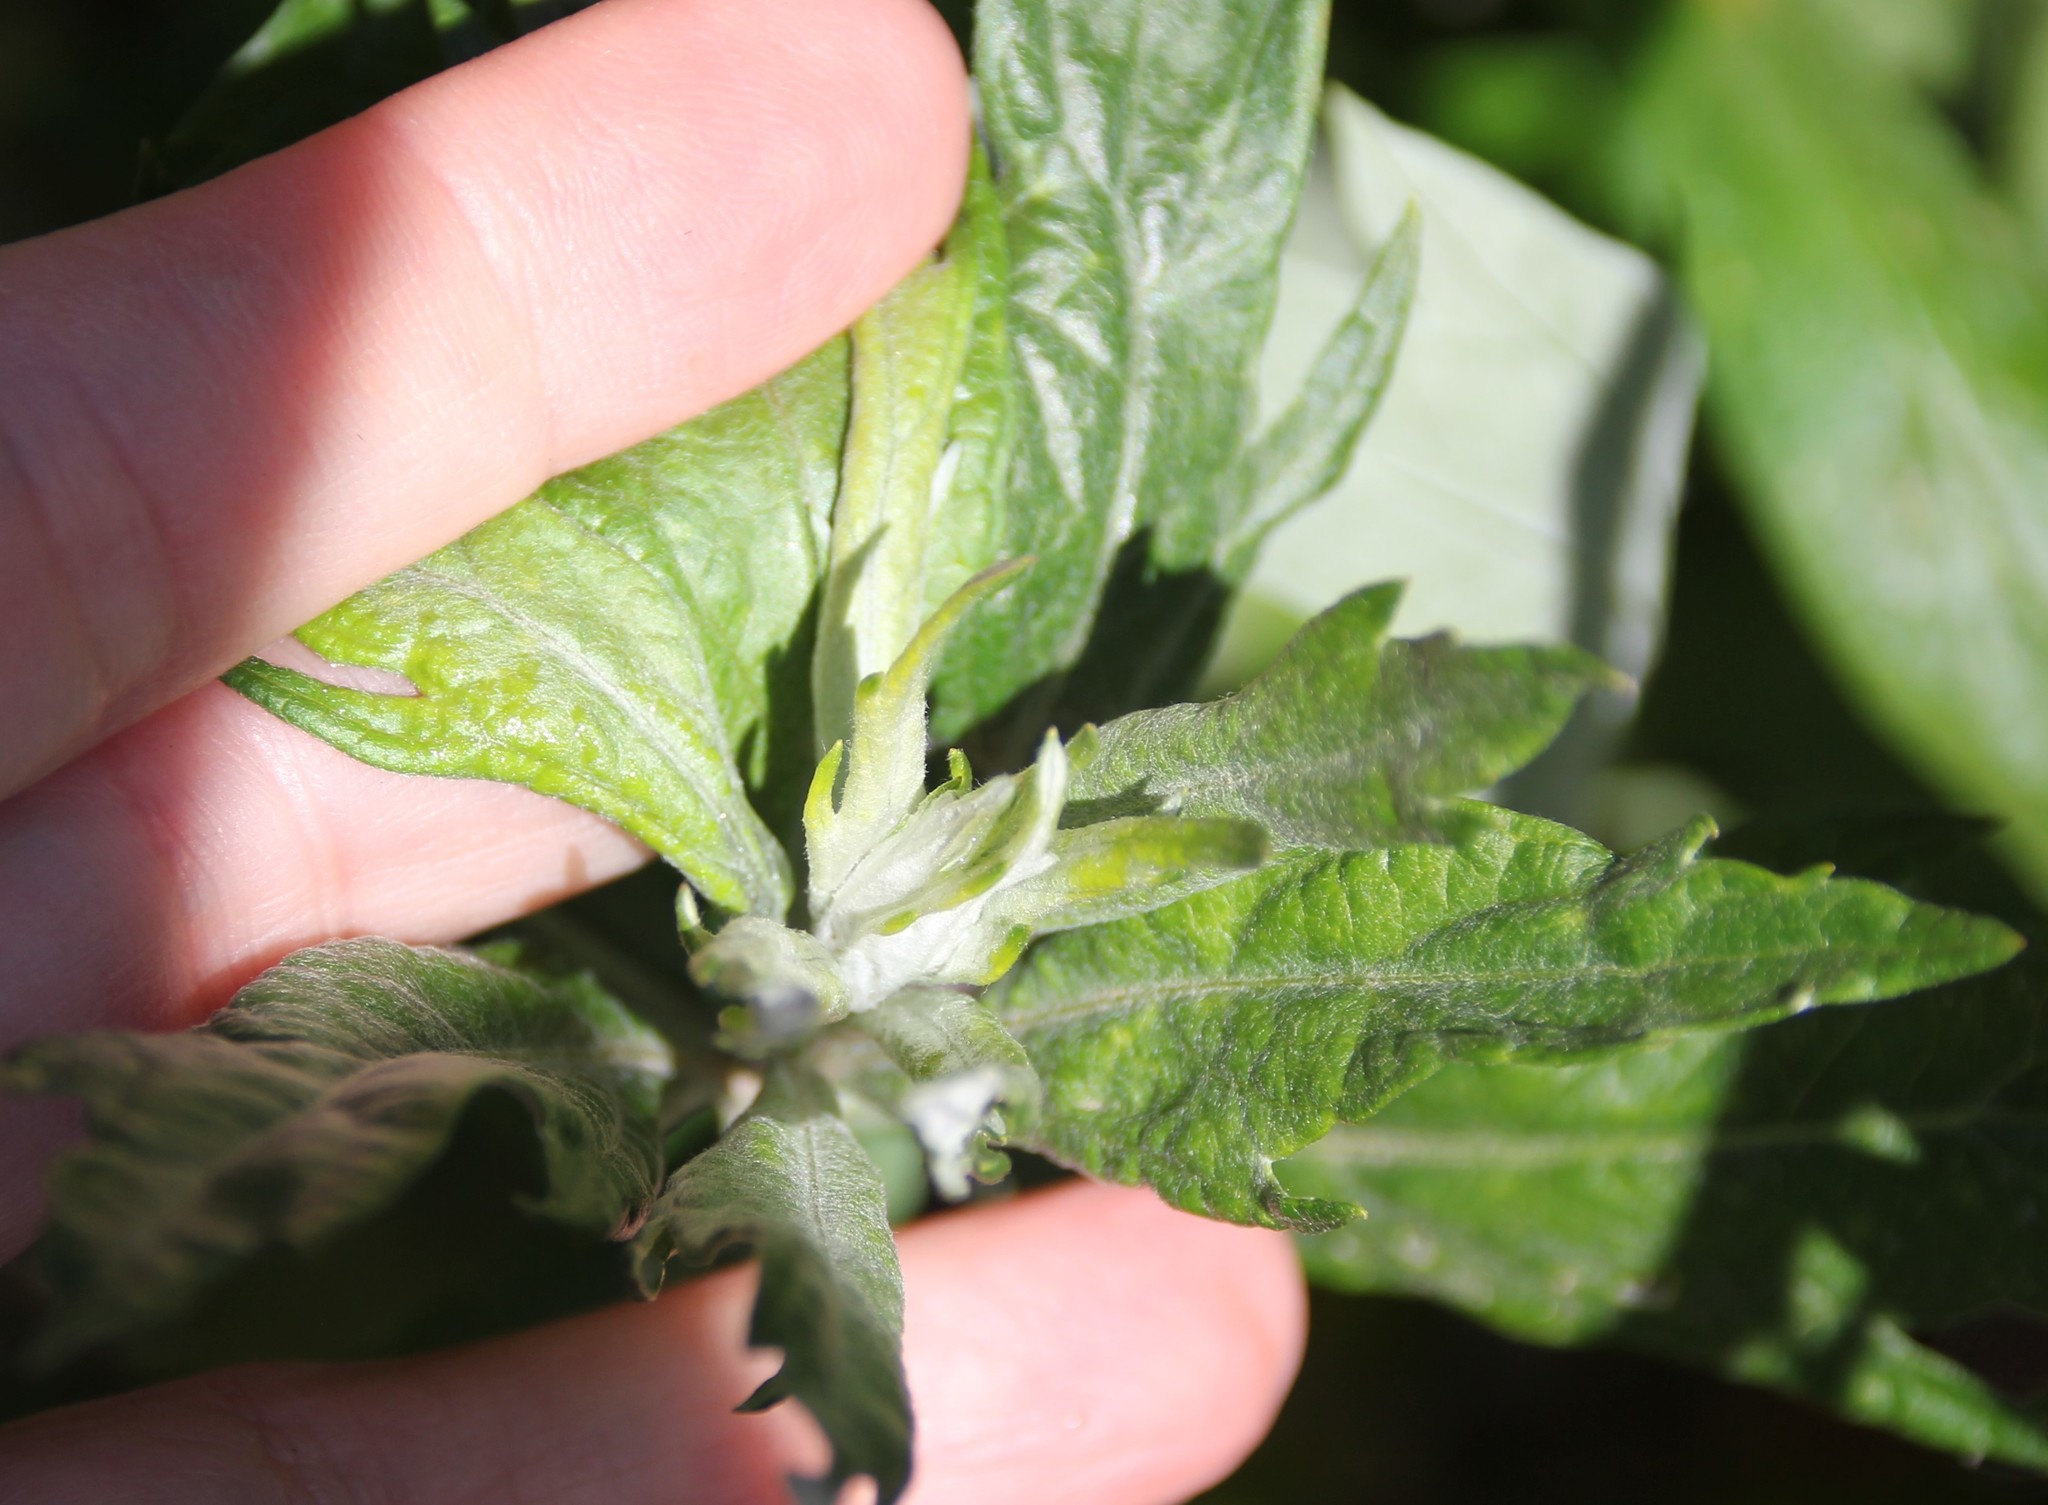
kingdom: Plantae
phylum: Tracheophyta
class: Magnoliopsida
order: Asterales
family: Asteraceae
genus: Artemisia
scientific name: Artemisia douglasiana
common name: Northwest mugwort
